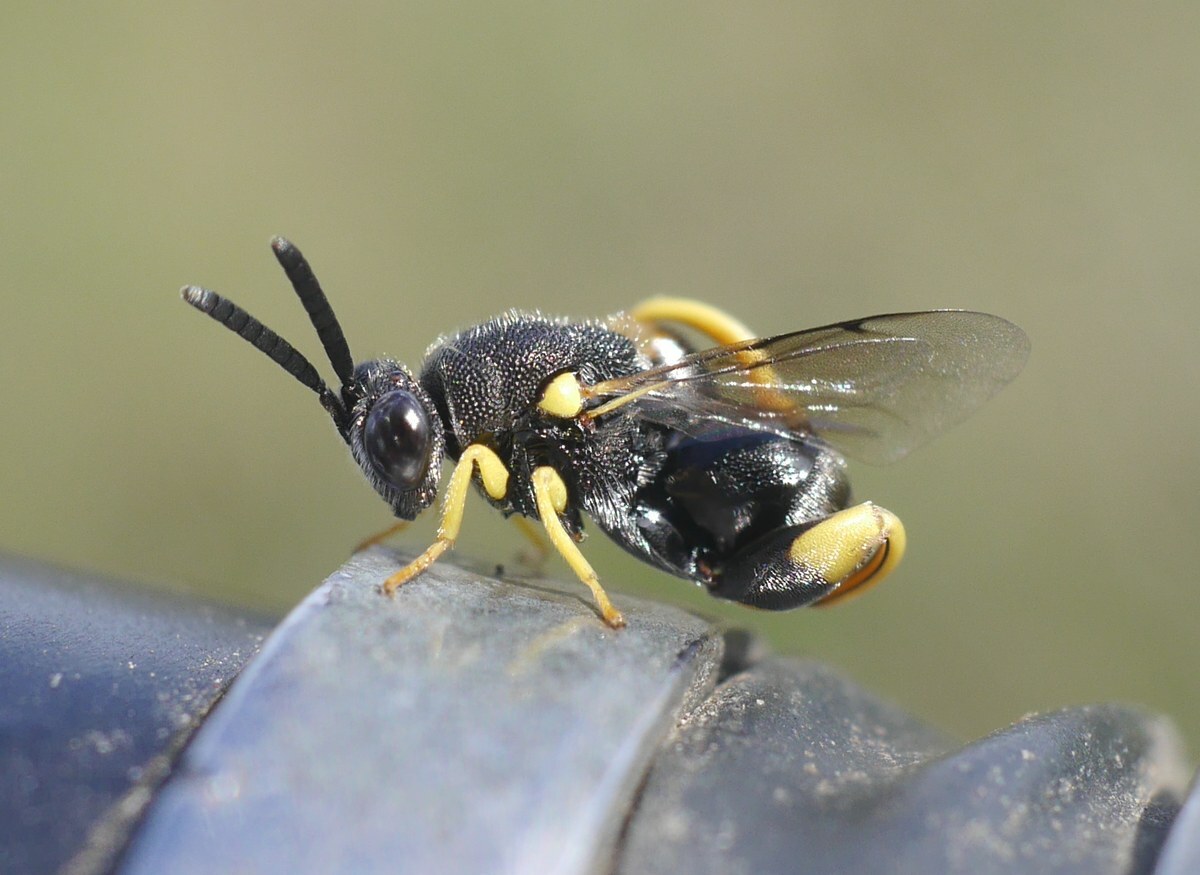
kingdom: Animalia
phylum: Arthropoda
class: Insecta
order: Hymenoptera
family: Chalcididae
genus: Brachymeria
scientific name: Brachymeria femorata
